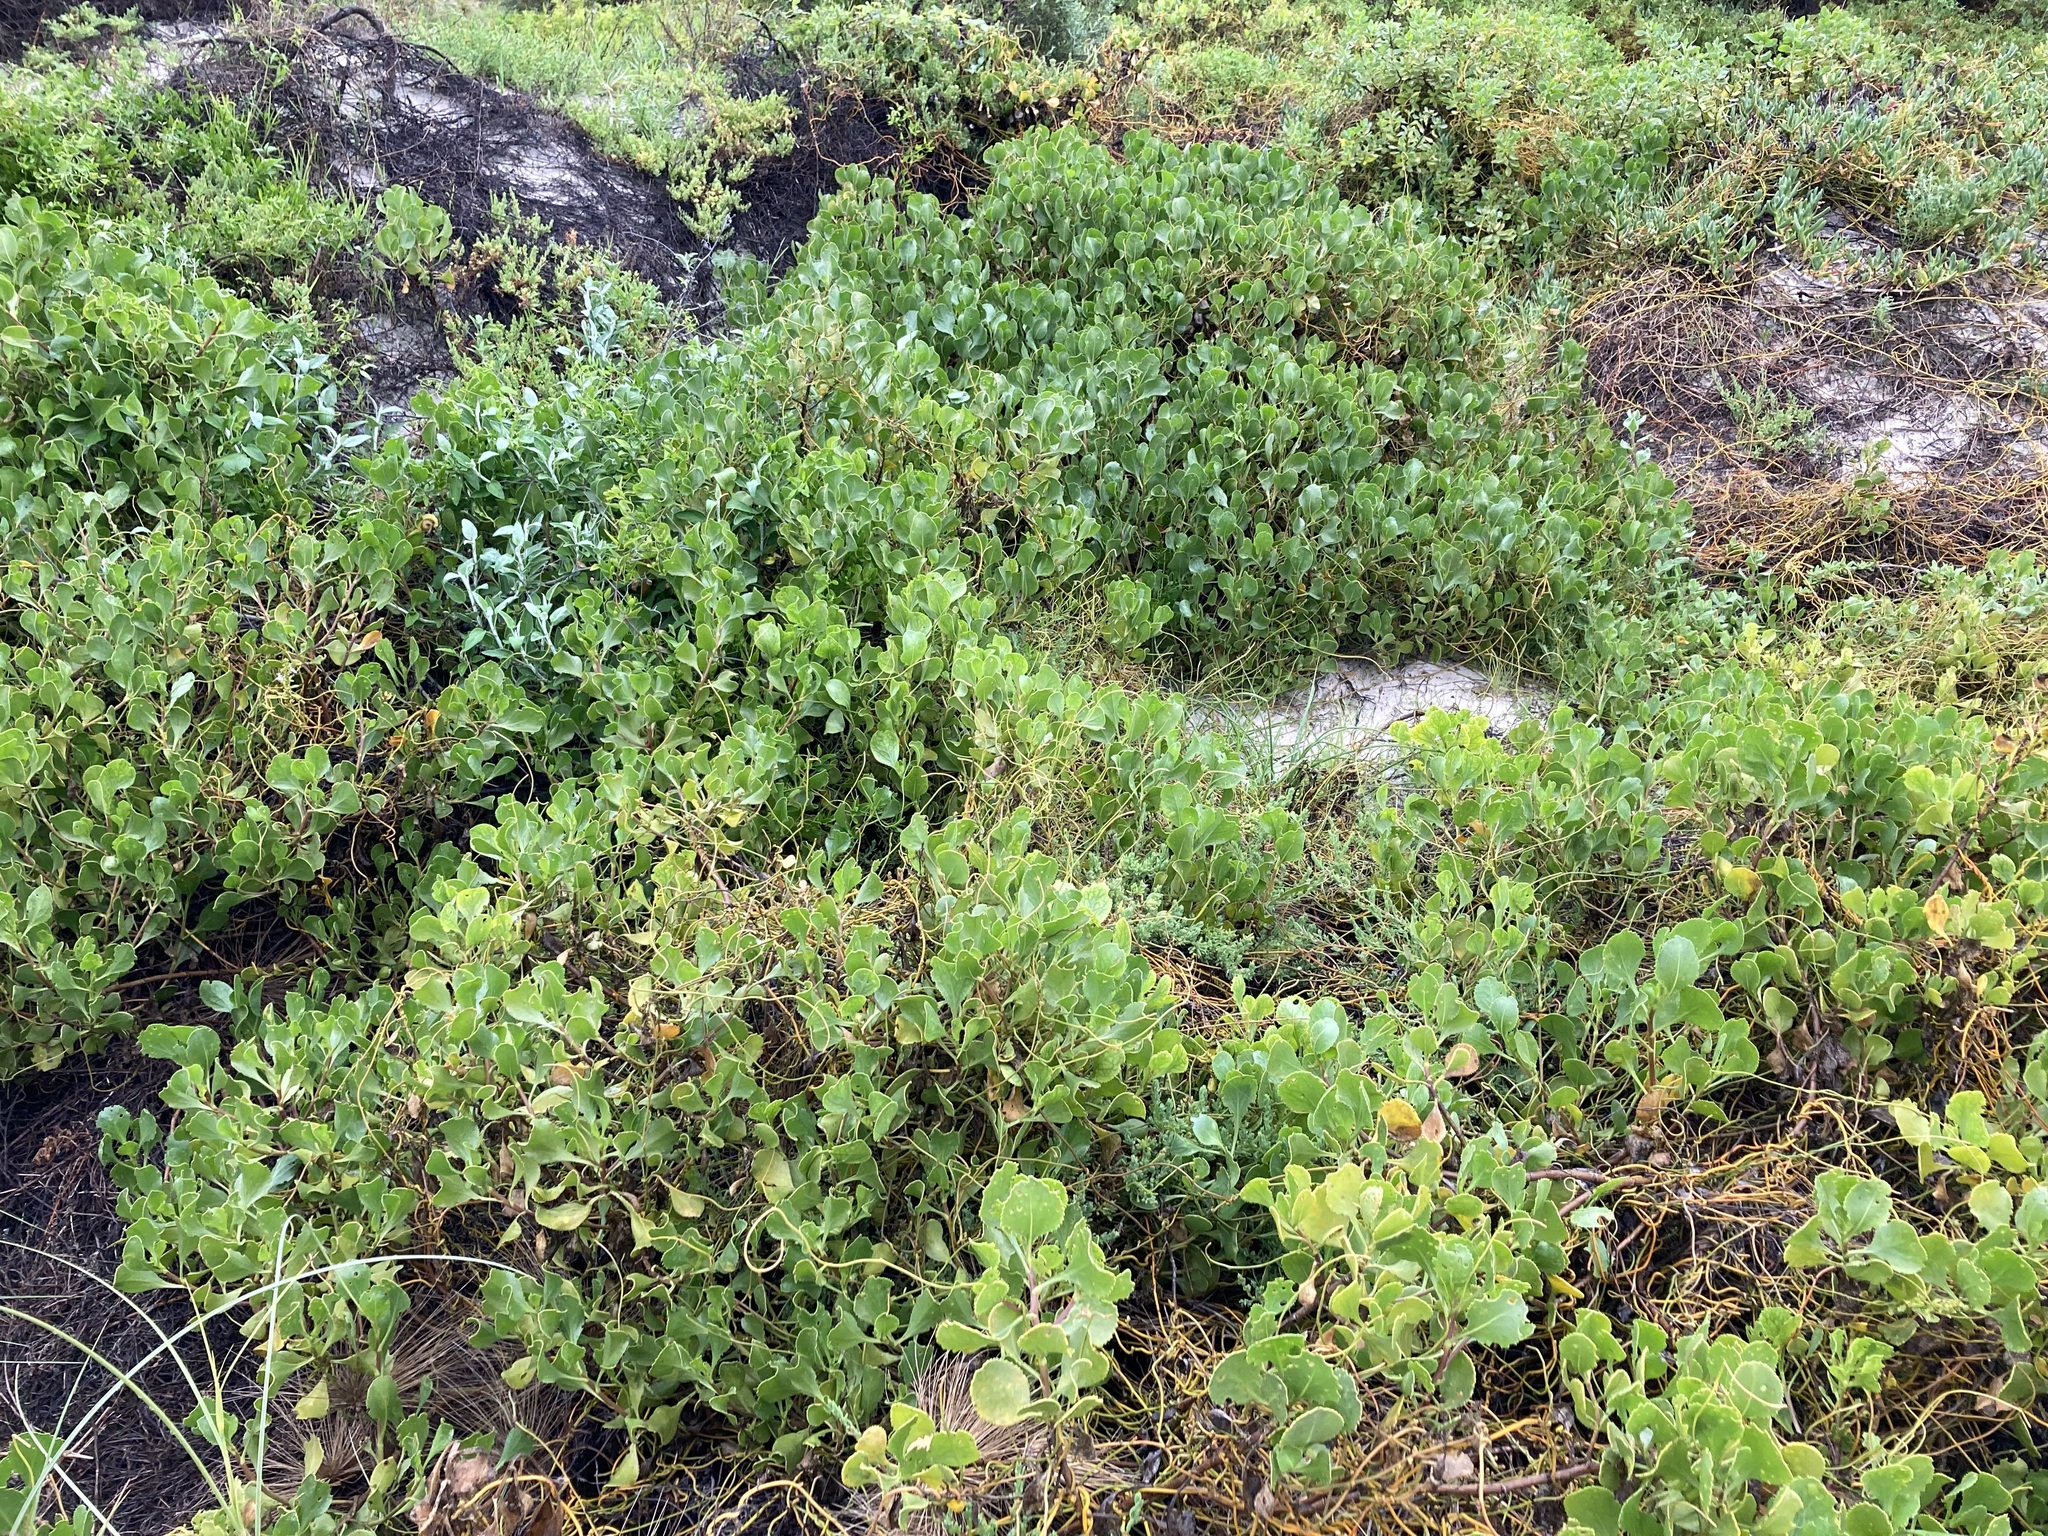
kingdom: Plantae
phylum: Tracheophyta
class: Magnoliopsida
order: Asterales
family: Goodeniaceae
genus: Scaevola
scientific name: Scaevola crassifolia
